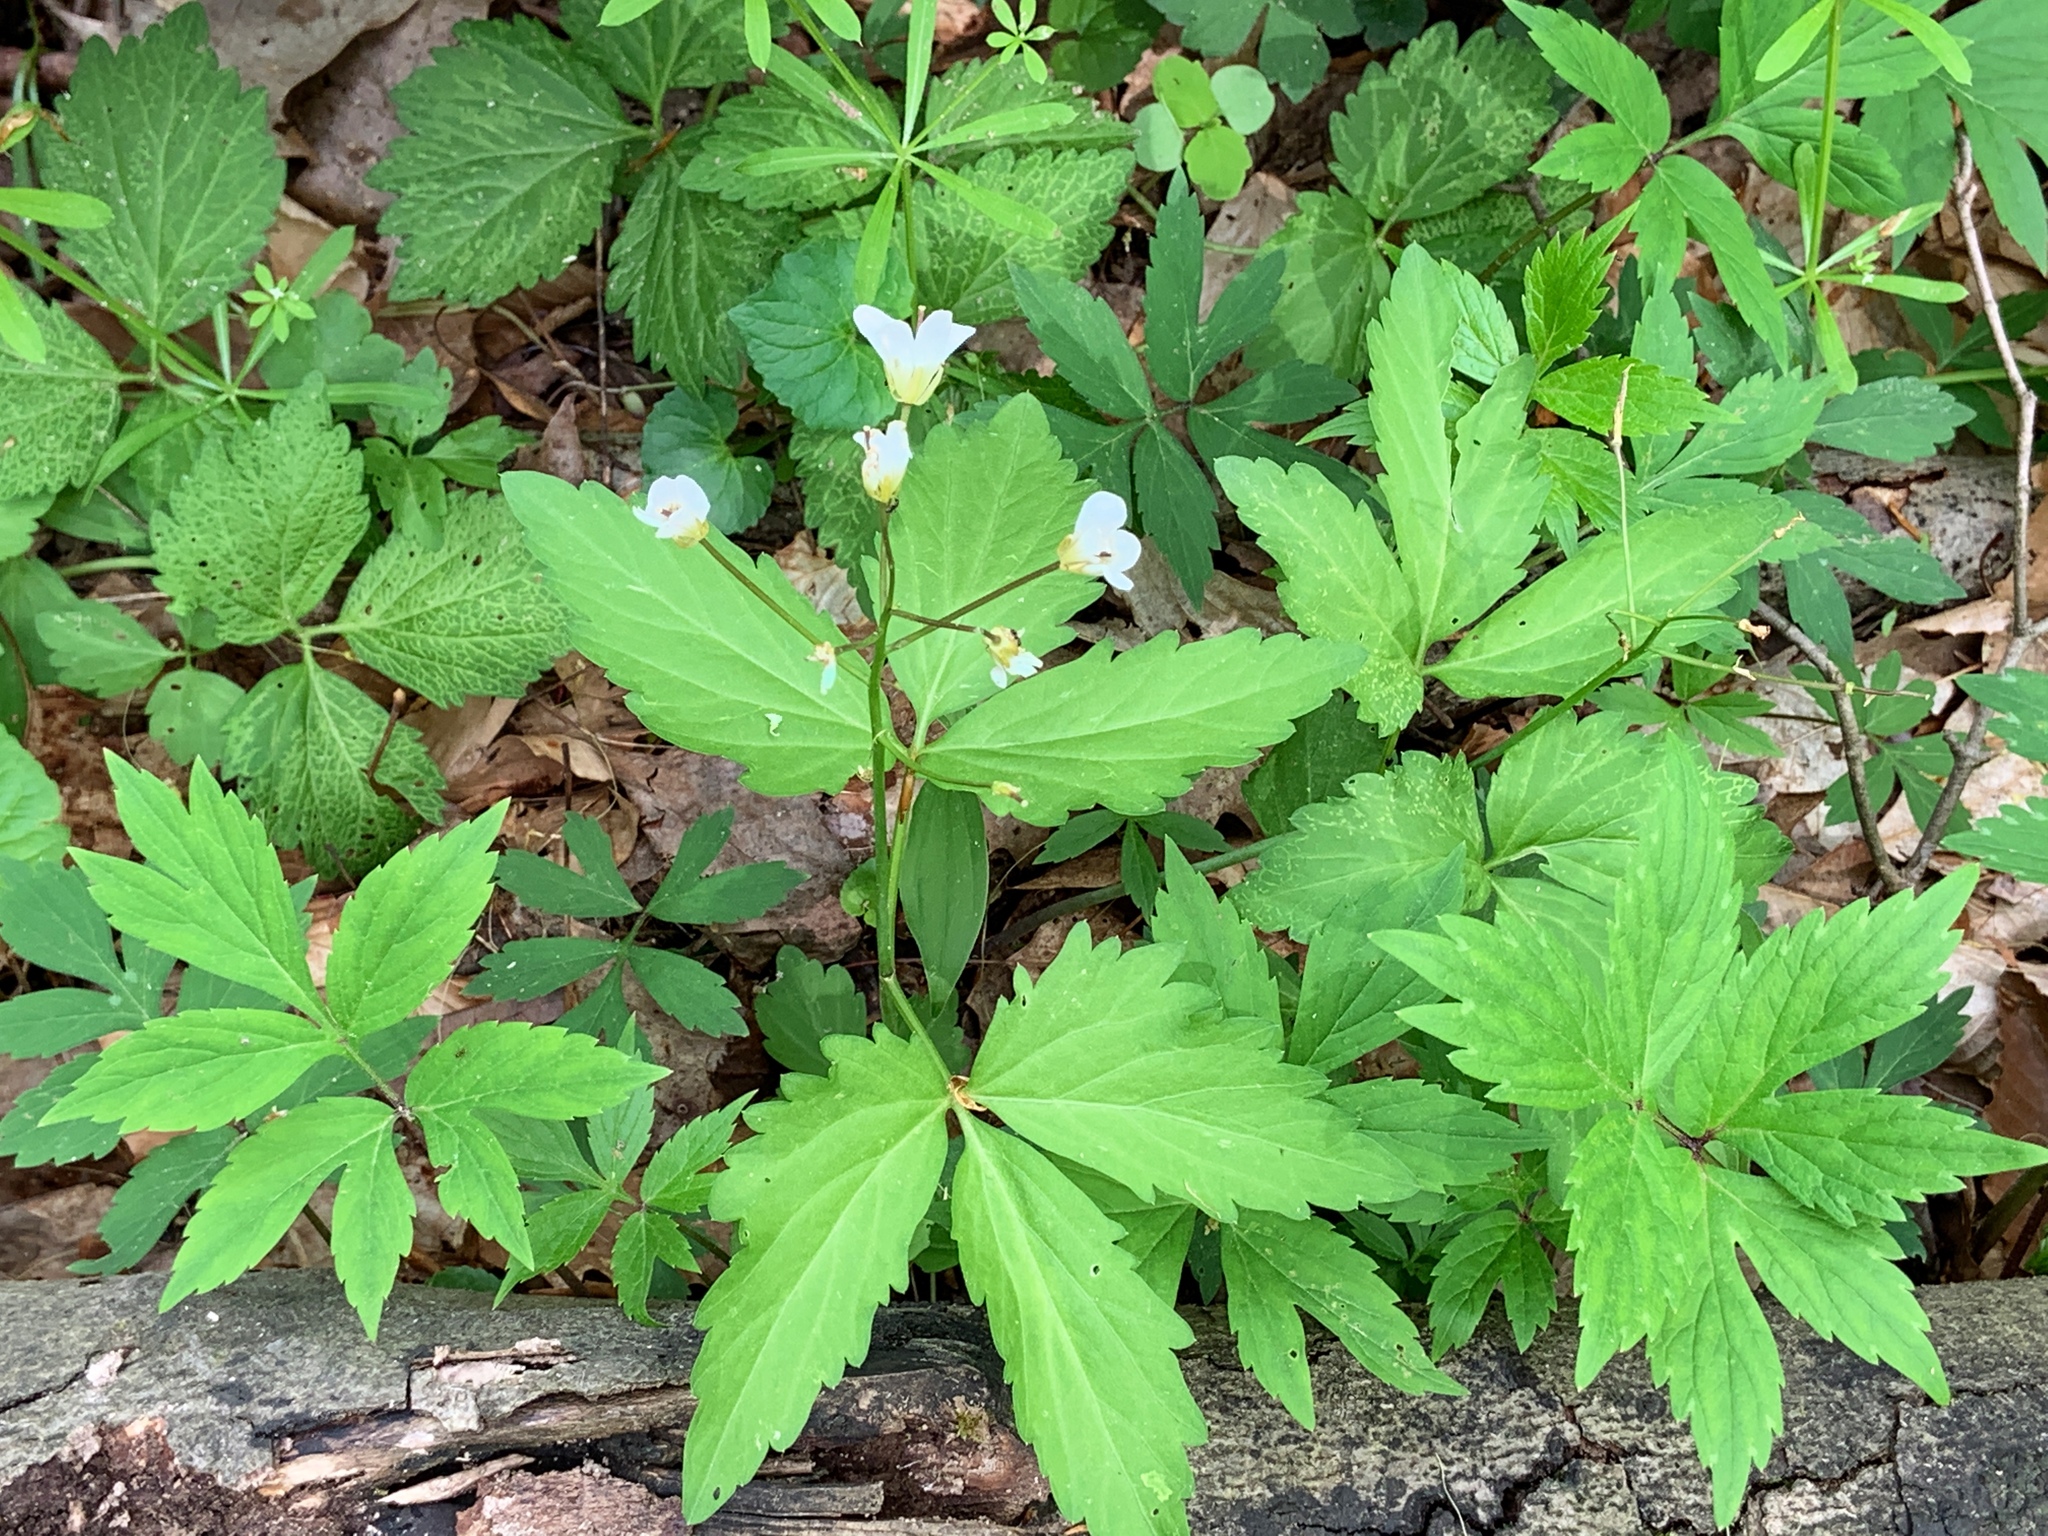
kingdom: Plantae
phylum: Tracheophyta
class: Magnoliopsida
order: Brassicales
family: Brassicaceae
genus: Cardamine
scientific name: Cardamine diphylla
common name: Broad-leaved toothwort
